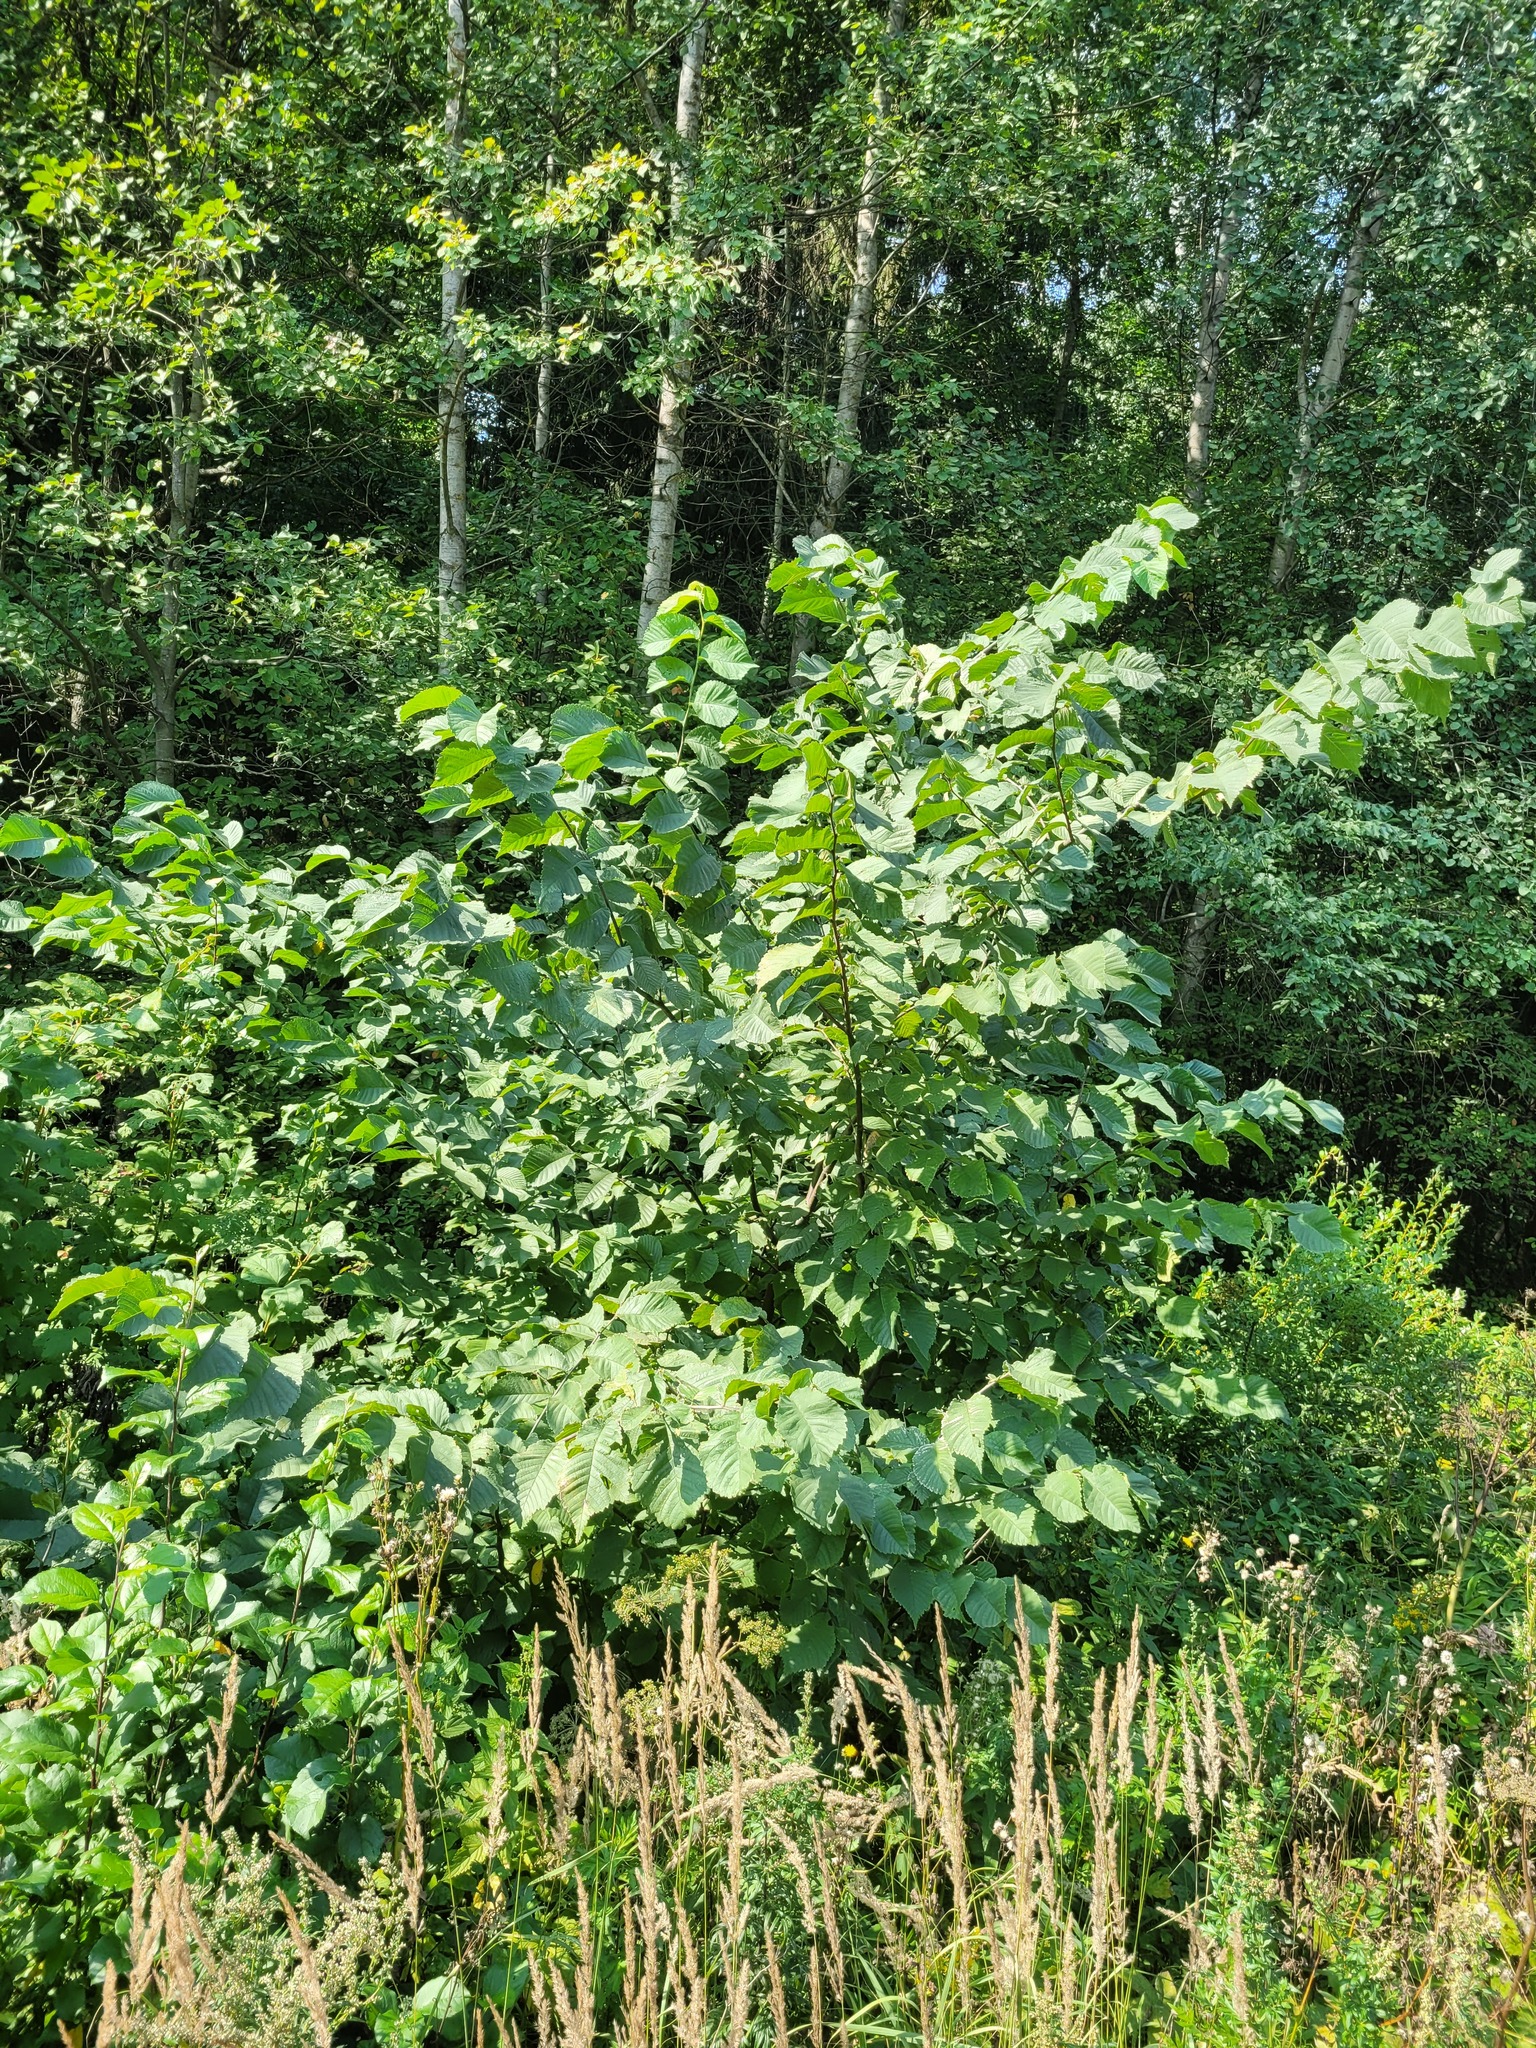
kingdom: Plantae
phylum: Tracheophyta
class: Magnoliopsida
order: Rosales
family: Ulmaceae
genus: Ulmus
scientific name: Ulmus glabra
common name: Wych elm
